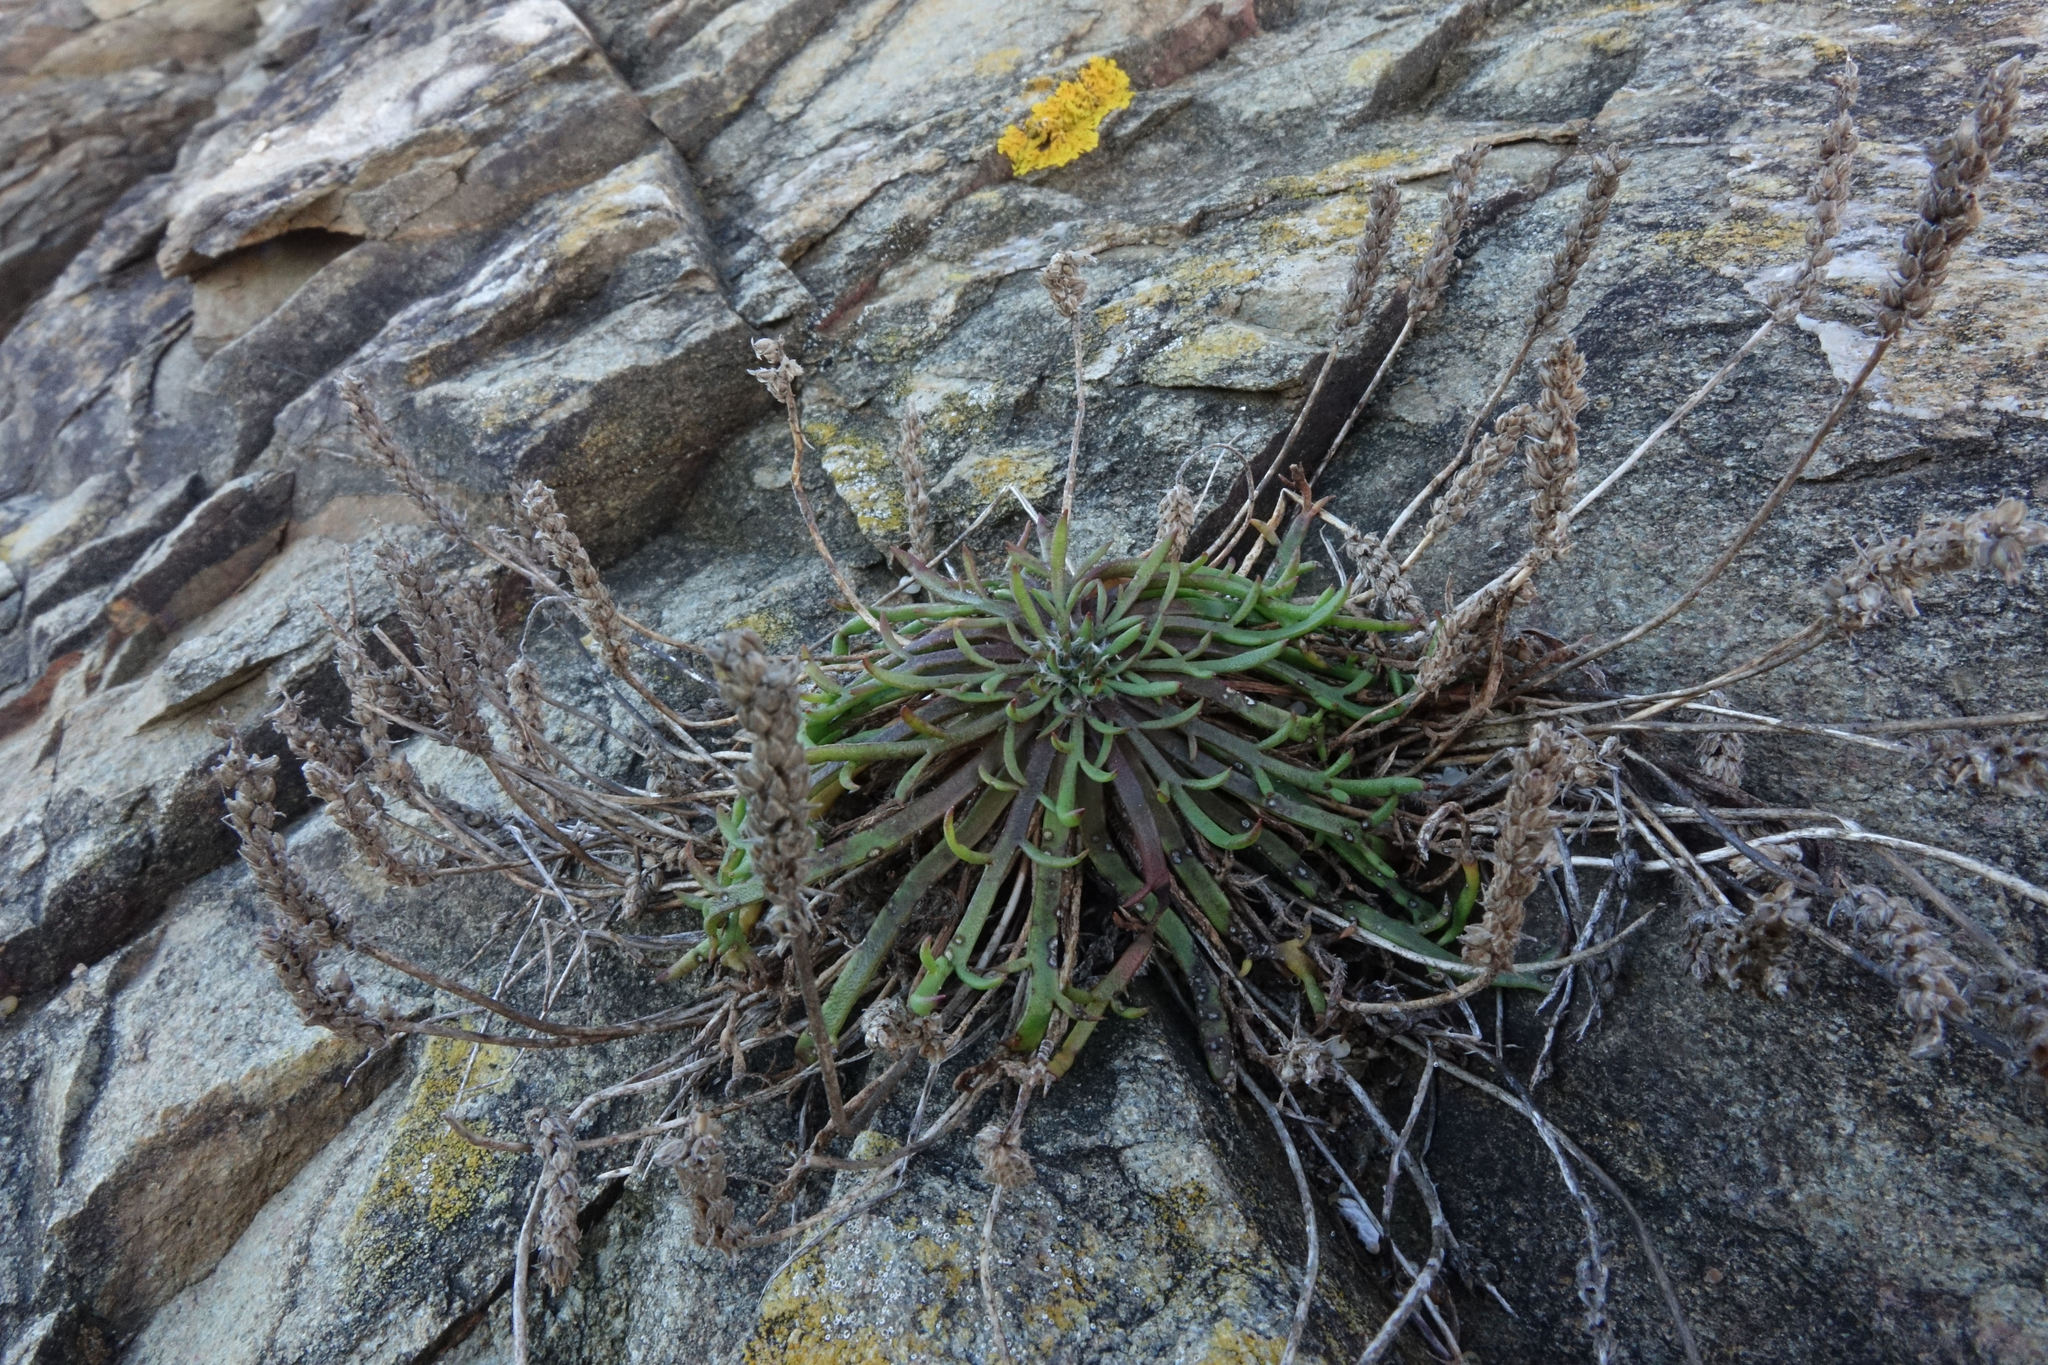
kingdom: Plantae
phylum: Tracheophyta
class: Magnoliopsida
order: Lamiales
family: Plantaginaceae
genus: Plantago
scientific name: Plantago coronopus
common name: Buck's-horn plantain
